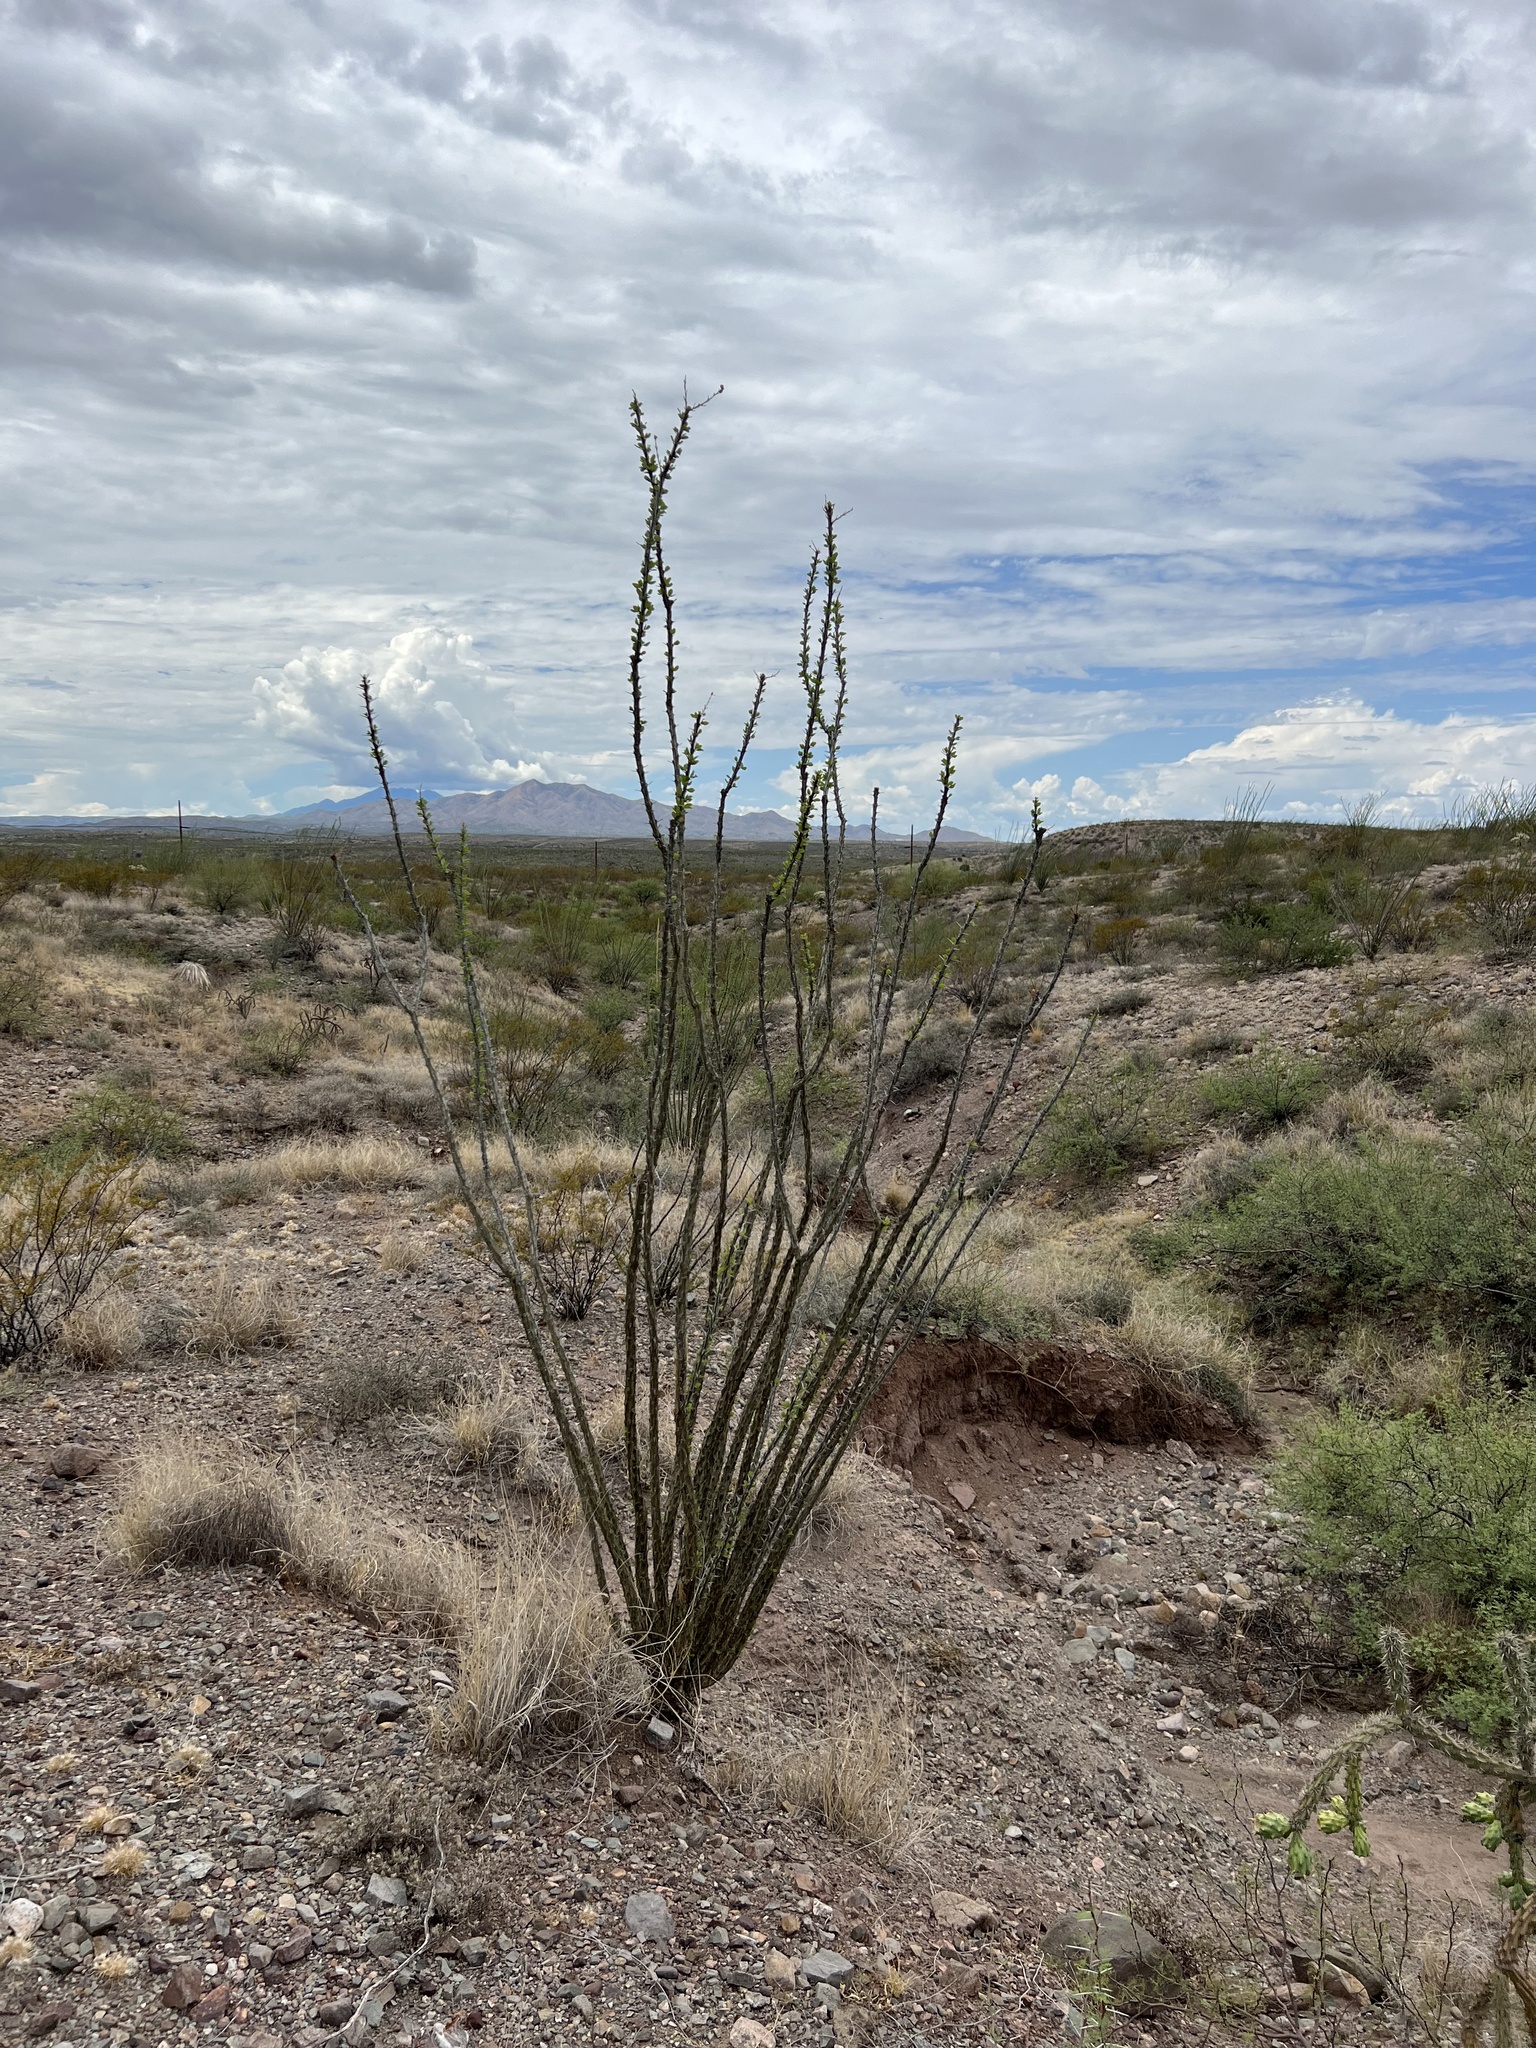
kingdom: Plantae
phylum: Tracheophyta
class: Magnoliopsida
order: Ericales
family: Fouquieriaceae
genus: Fouquieria
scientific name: Fouquieria splendens
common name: Vine-cactus
